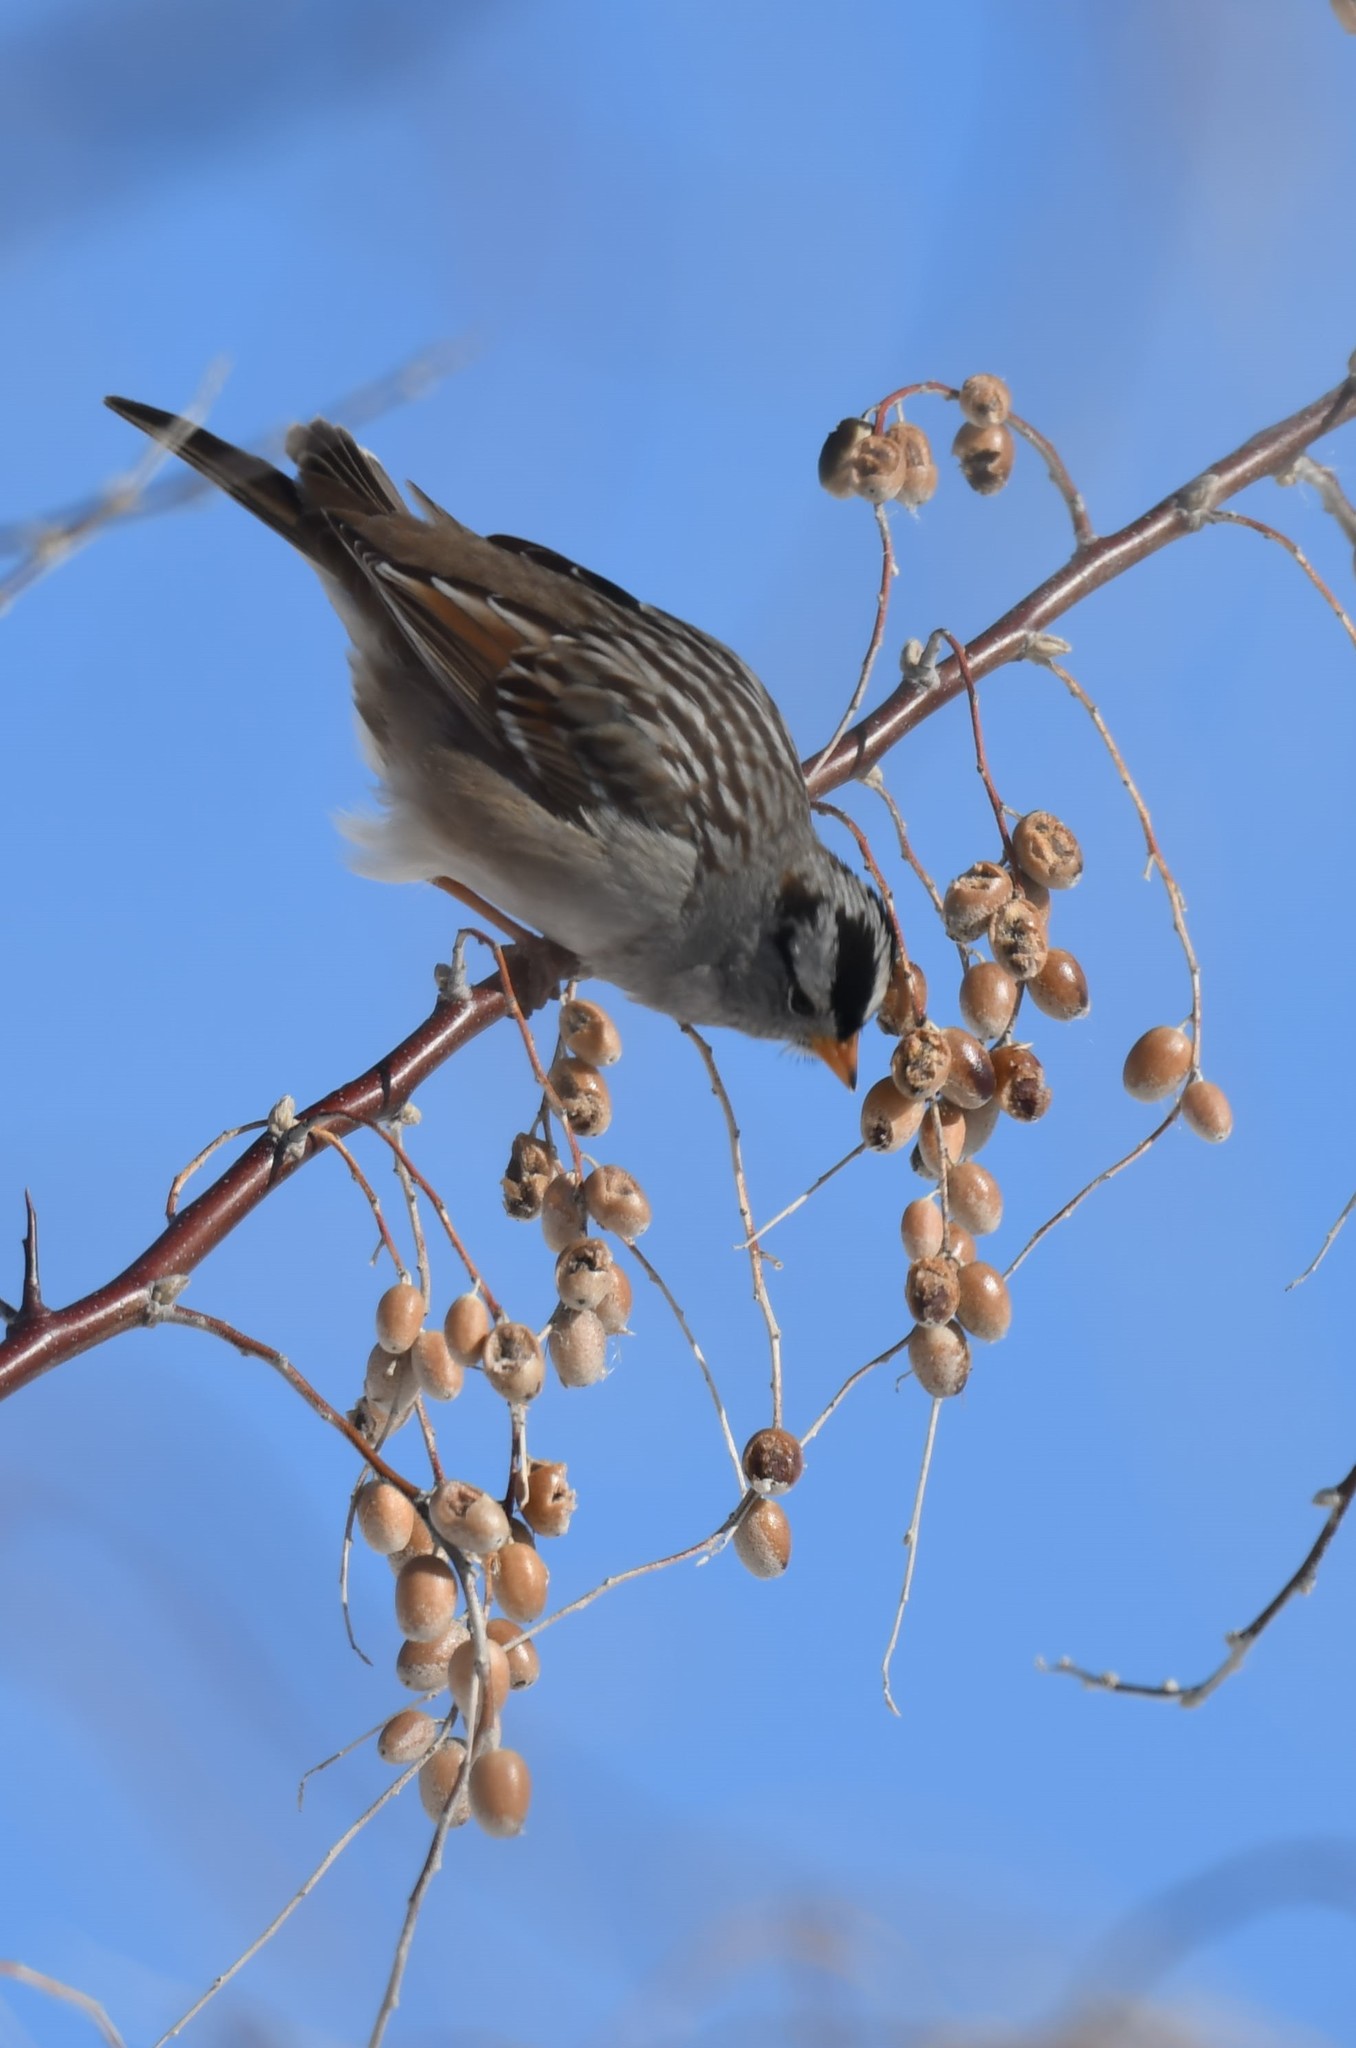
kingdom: Animalia
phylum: Chordata
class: Aves
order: Passeriformes
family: Passerellidae
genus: Zonotrichia
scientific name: Zonotrichia leucophrys
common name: White-crowned sparrow
